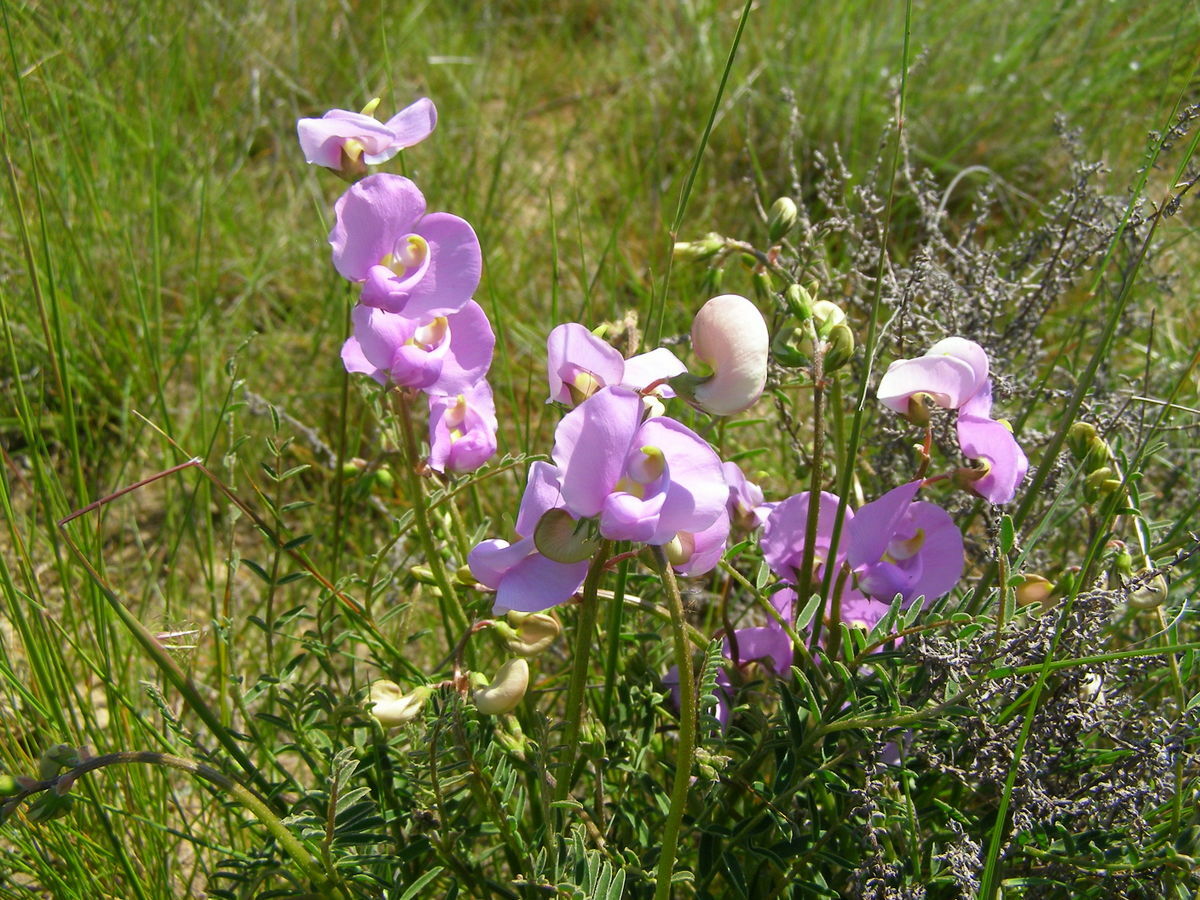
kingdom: Plantae
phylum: Tracheophyta
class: Magnoliopsida
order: Fabales
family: Fabaceae
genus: Swainsona
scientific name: Swainsona procumbens
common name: Broughton-pea
